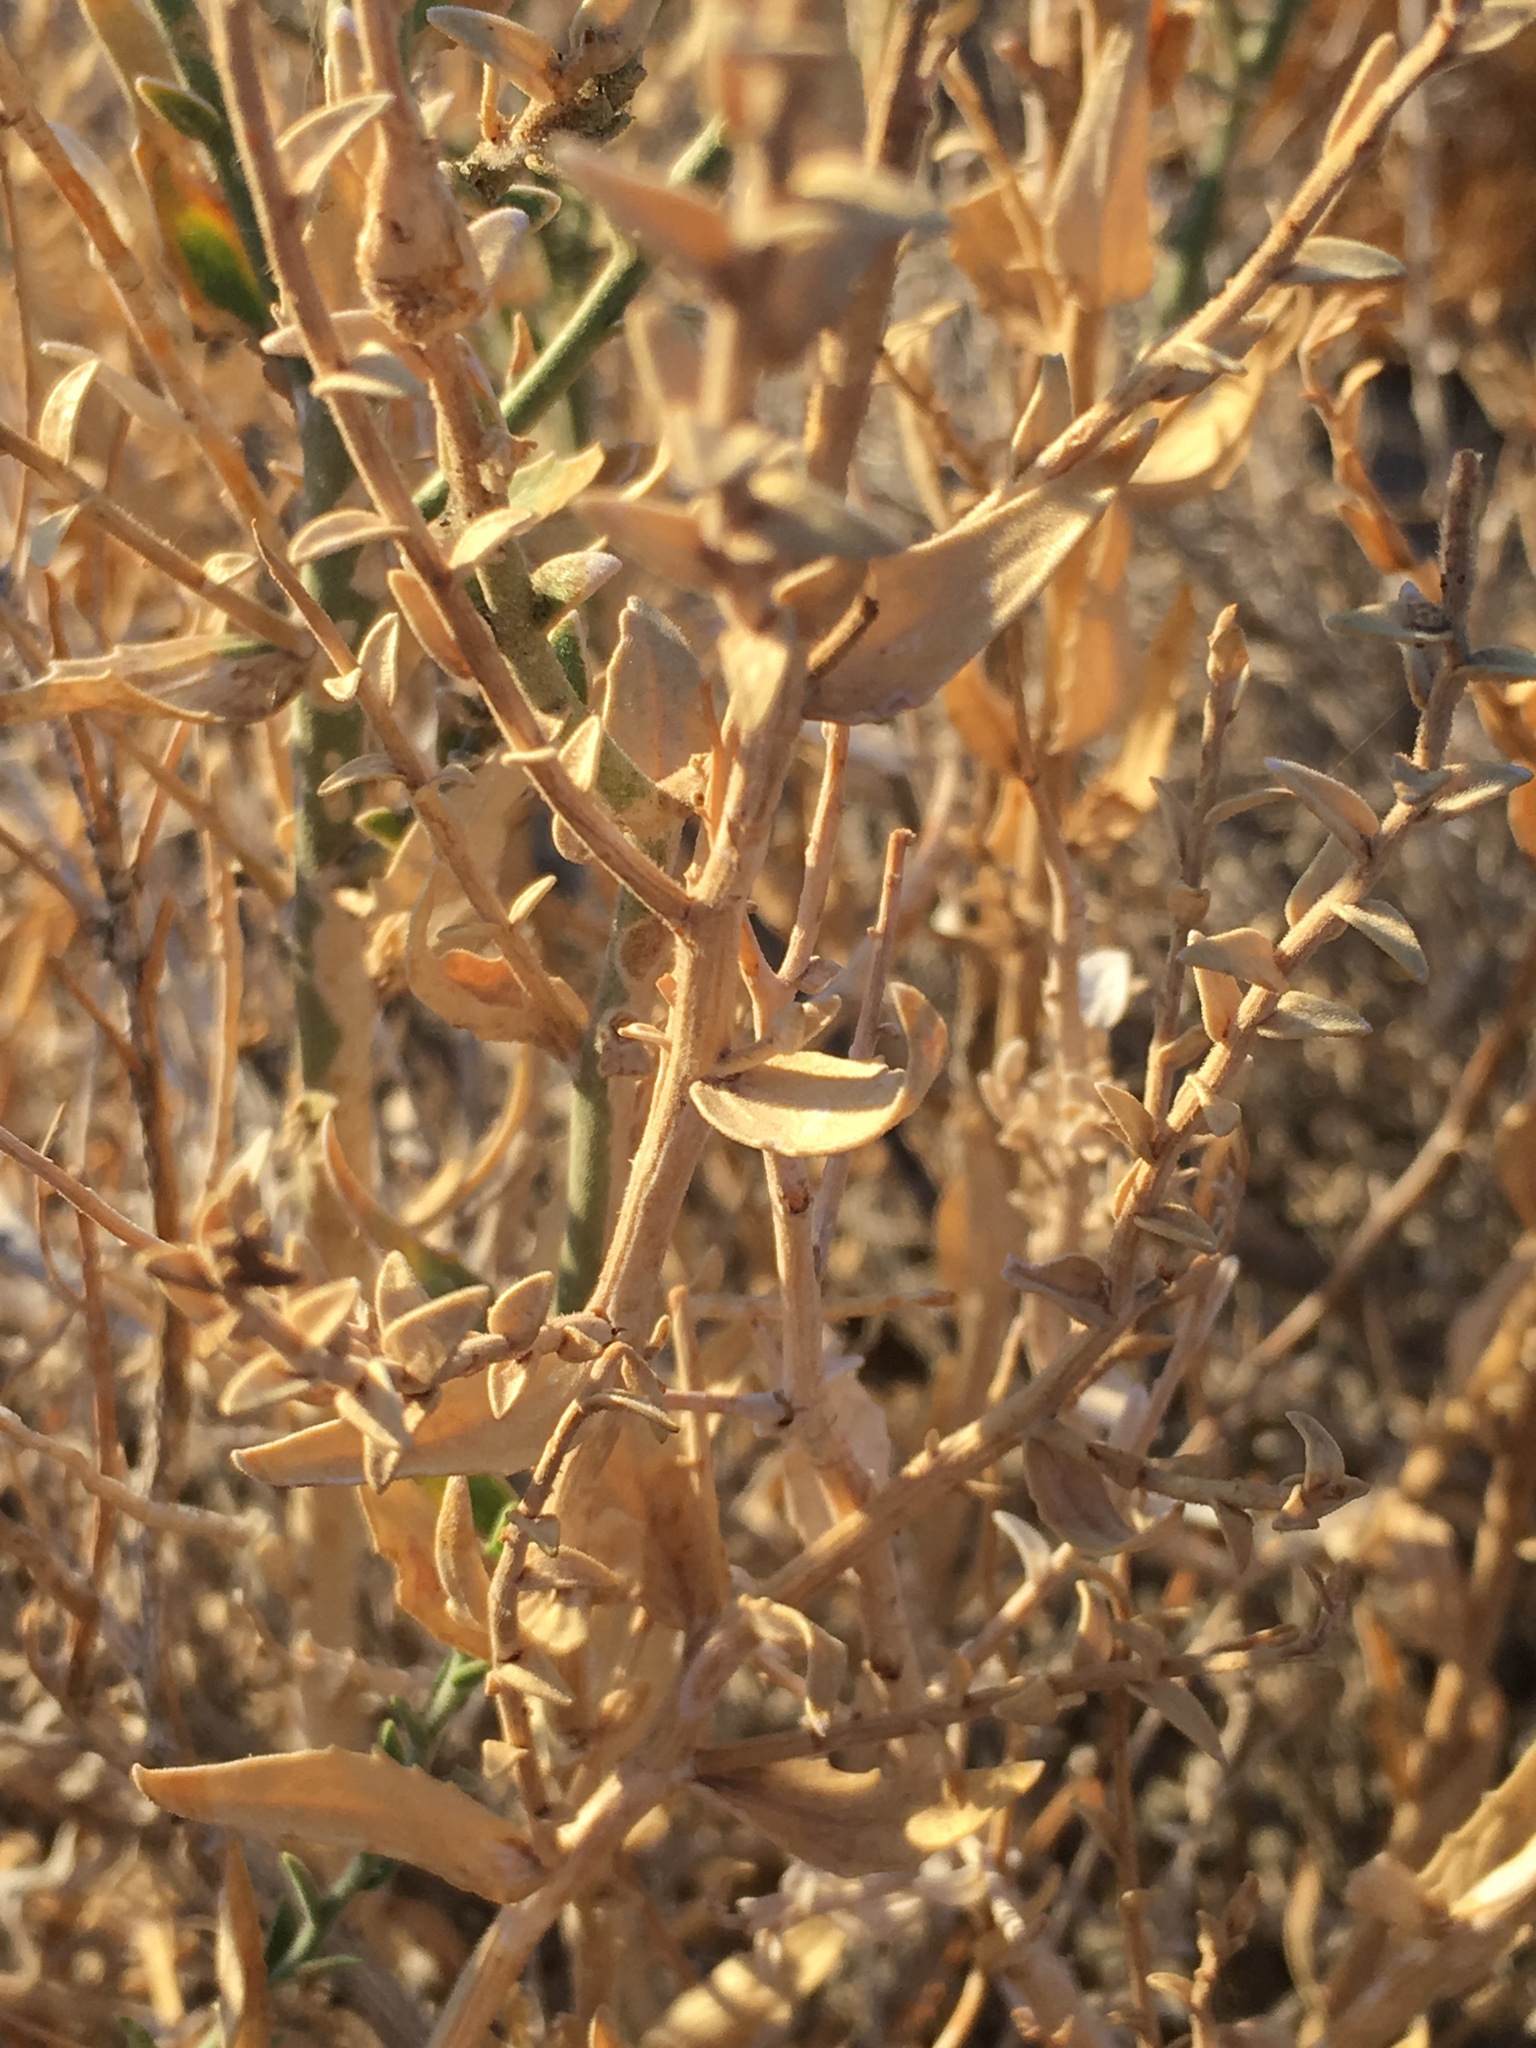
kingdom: Plantae
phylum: Tracheophyta
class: Magnoliopsida
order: Cornales
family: Loasaceae
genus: Petalonyx
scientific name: Petalonyx thurberi
